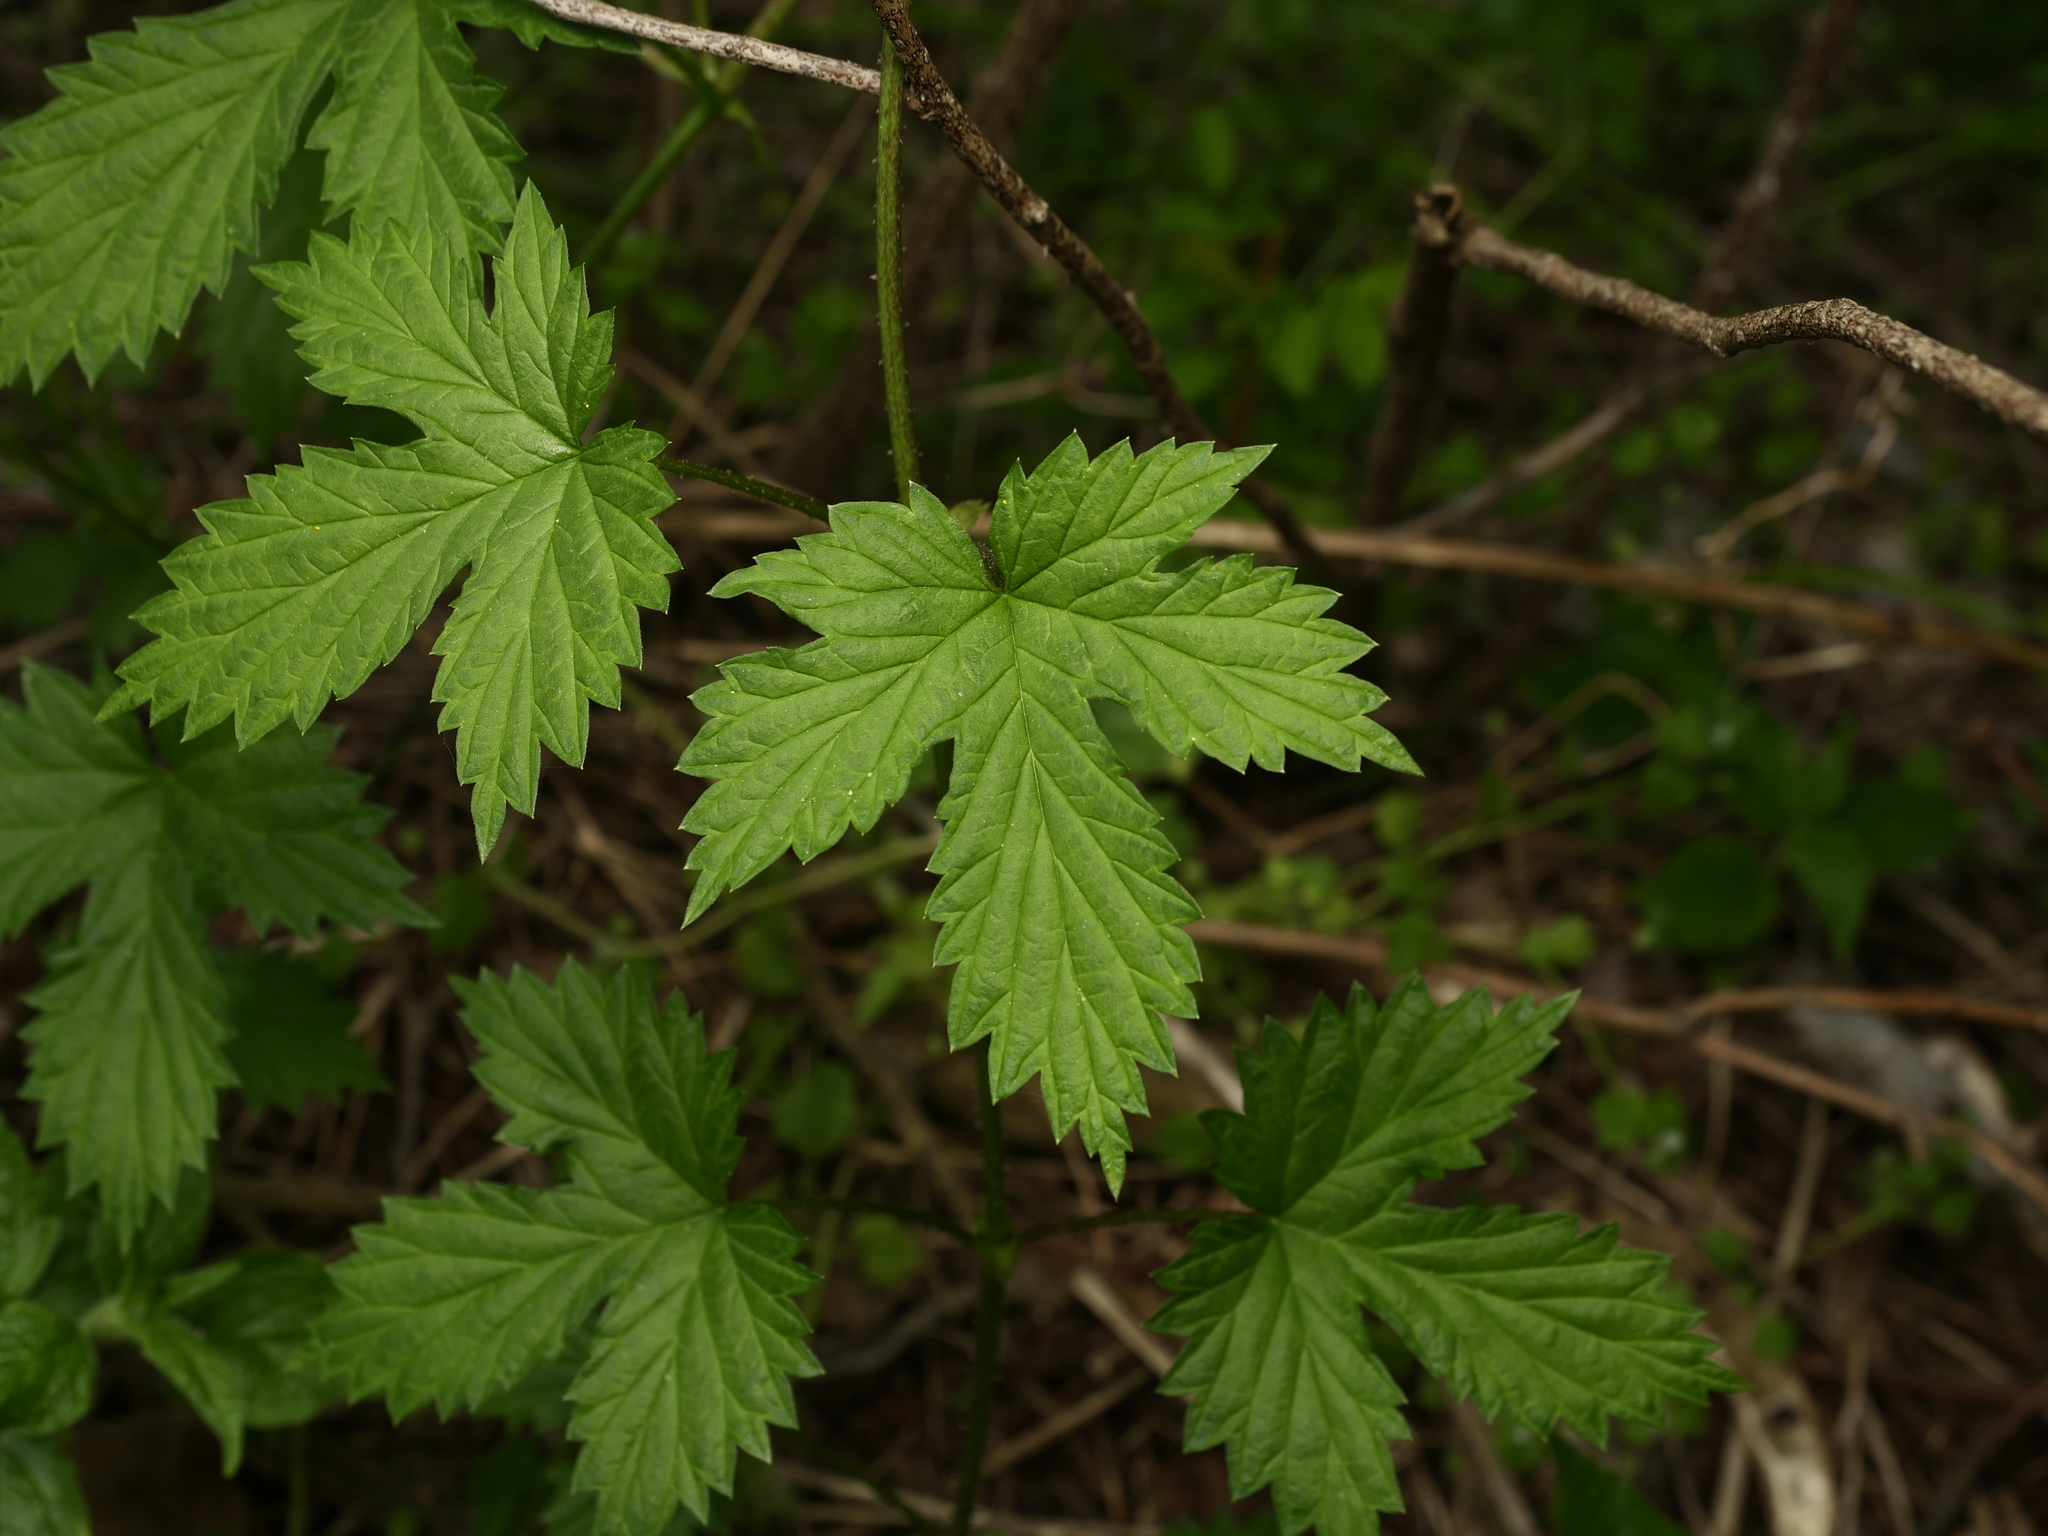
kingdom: Plantae
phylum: Tracheophyta
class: Magnoliopsida
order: Rosales
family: Cannabaceae
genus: Humulus
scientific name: Humulus lupulus
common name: Hop
